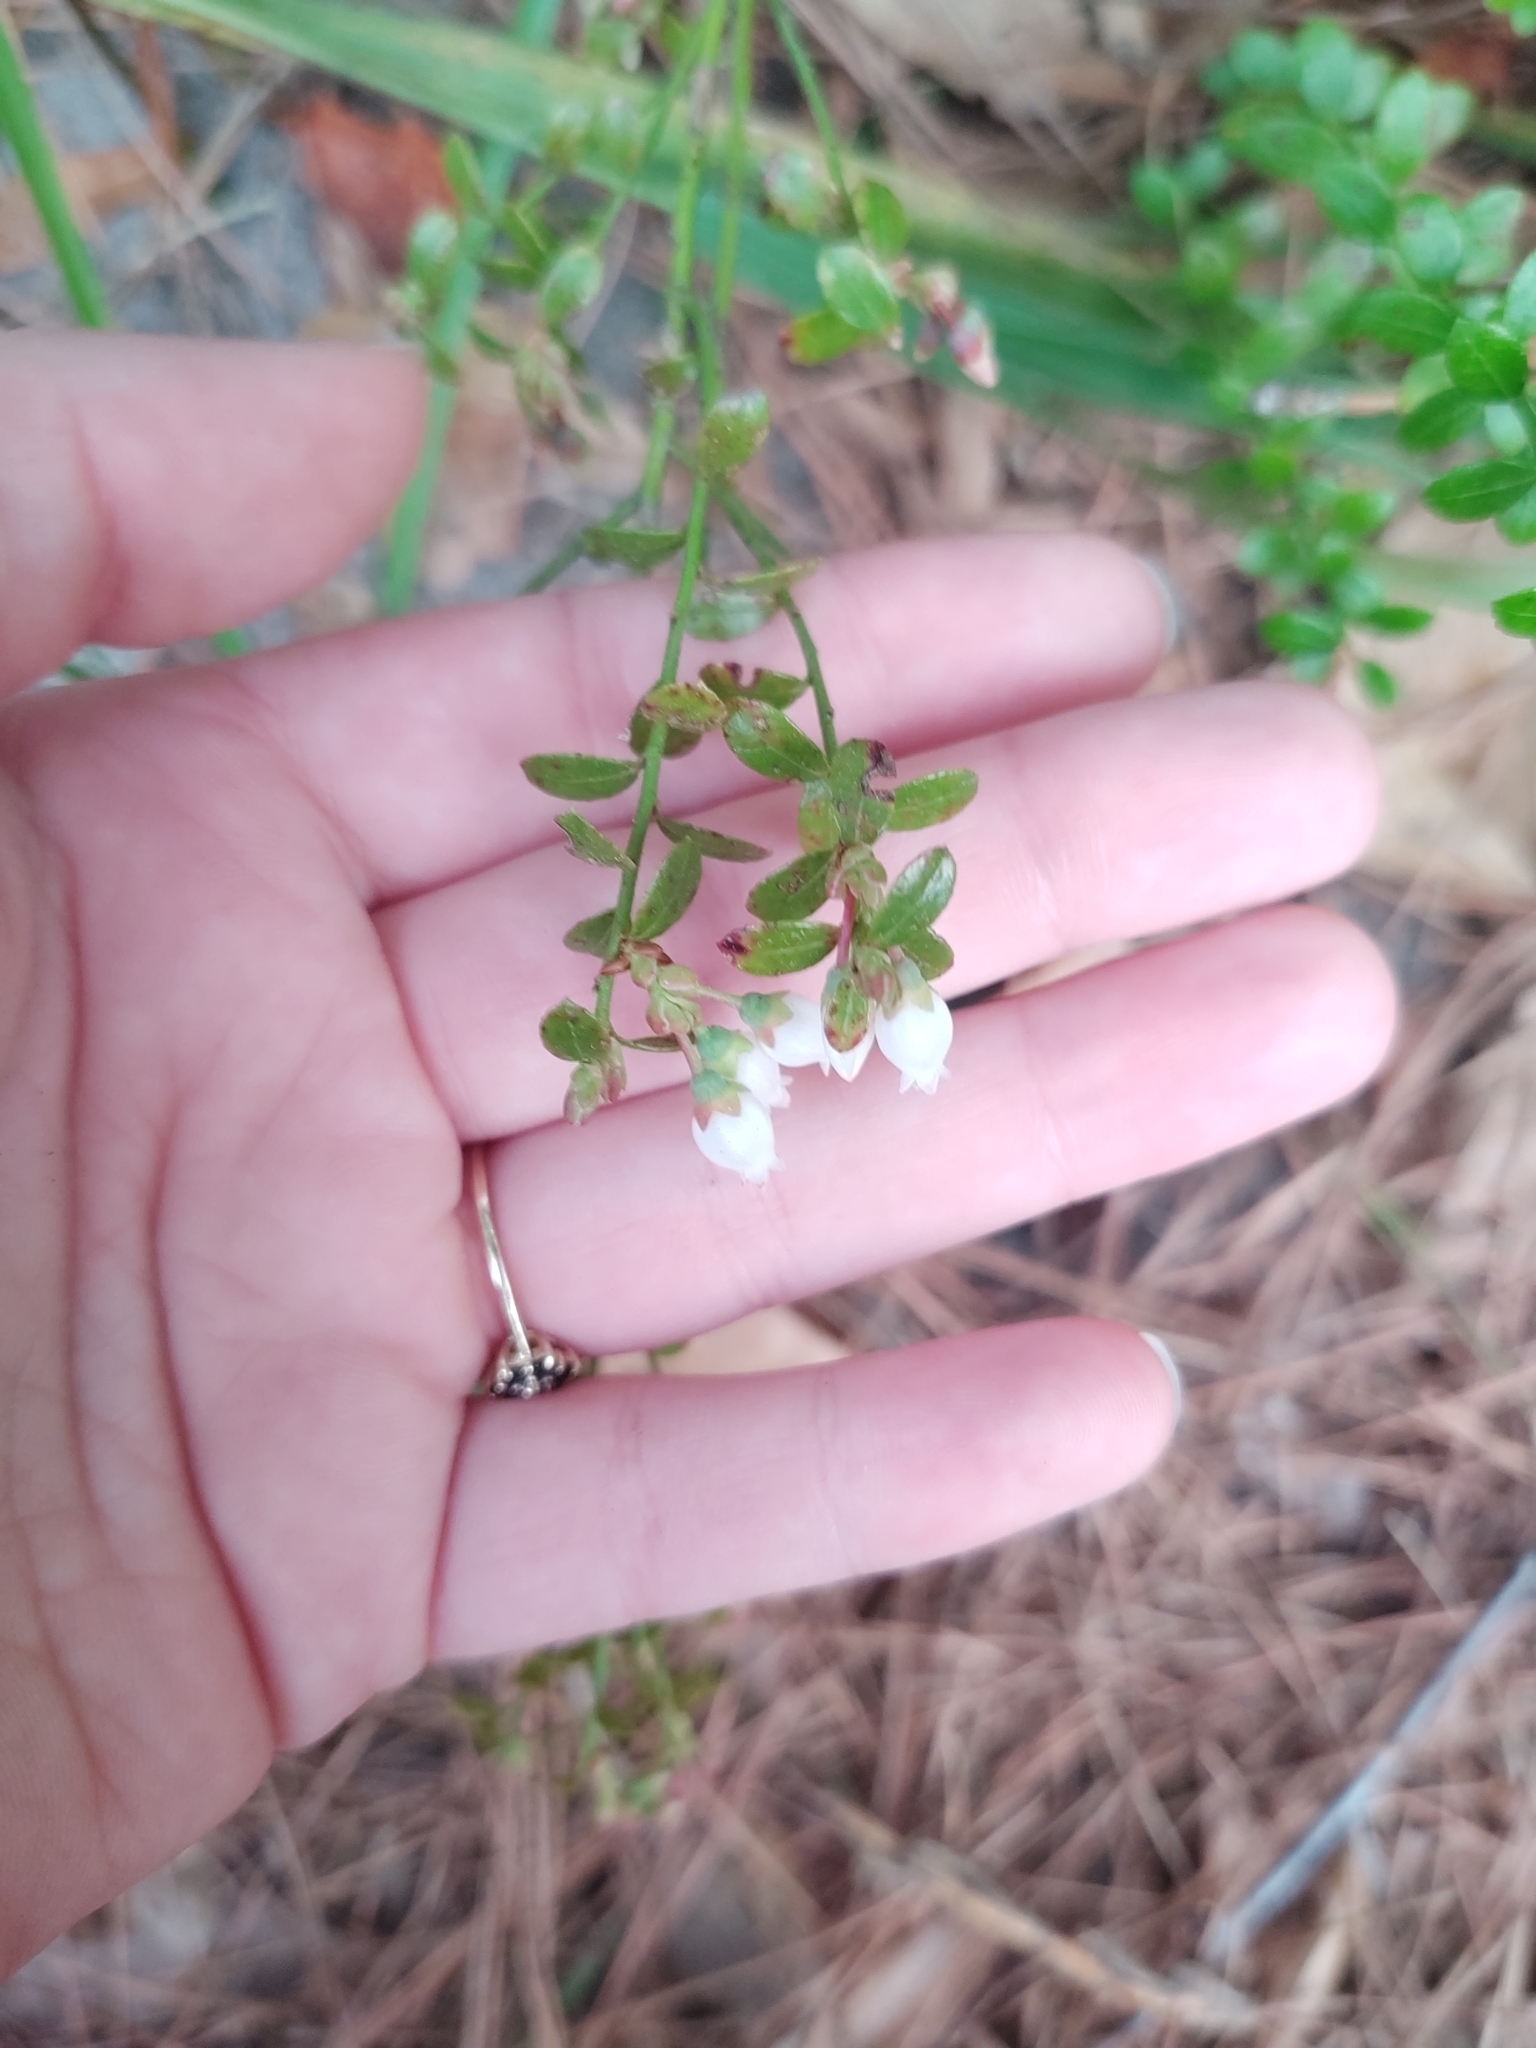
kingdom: Plantae
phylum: Tracheophyta
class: Magnoliopsida
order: Ericales
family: Ericaceae
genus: Vaccinium
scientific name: Vaccinium myrsinites
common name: Evergreen blueberry
